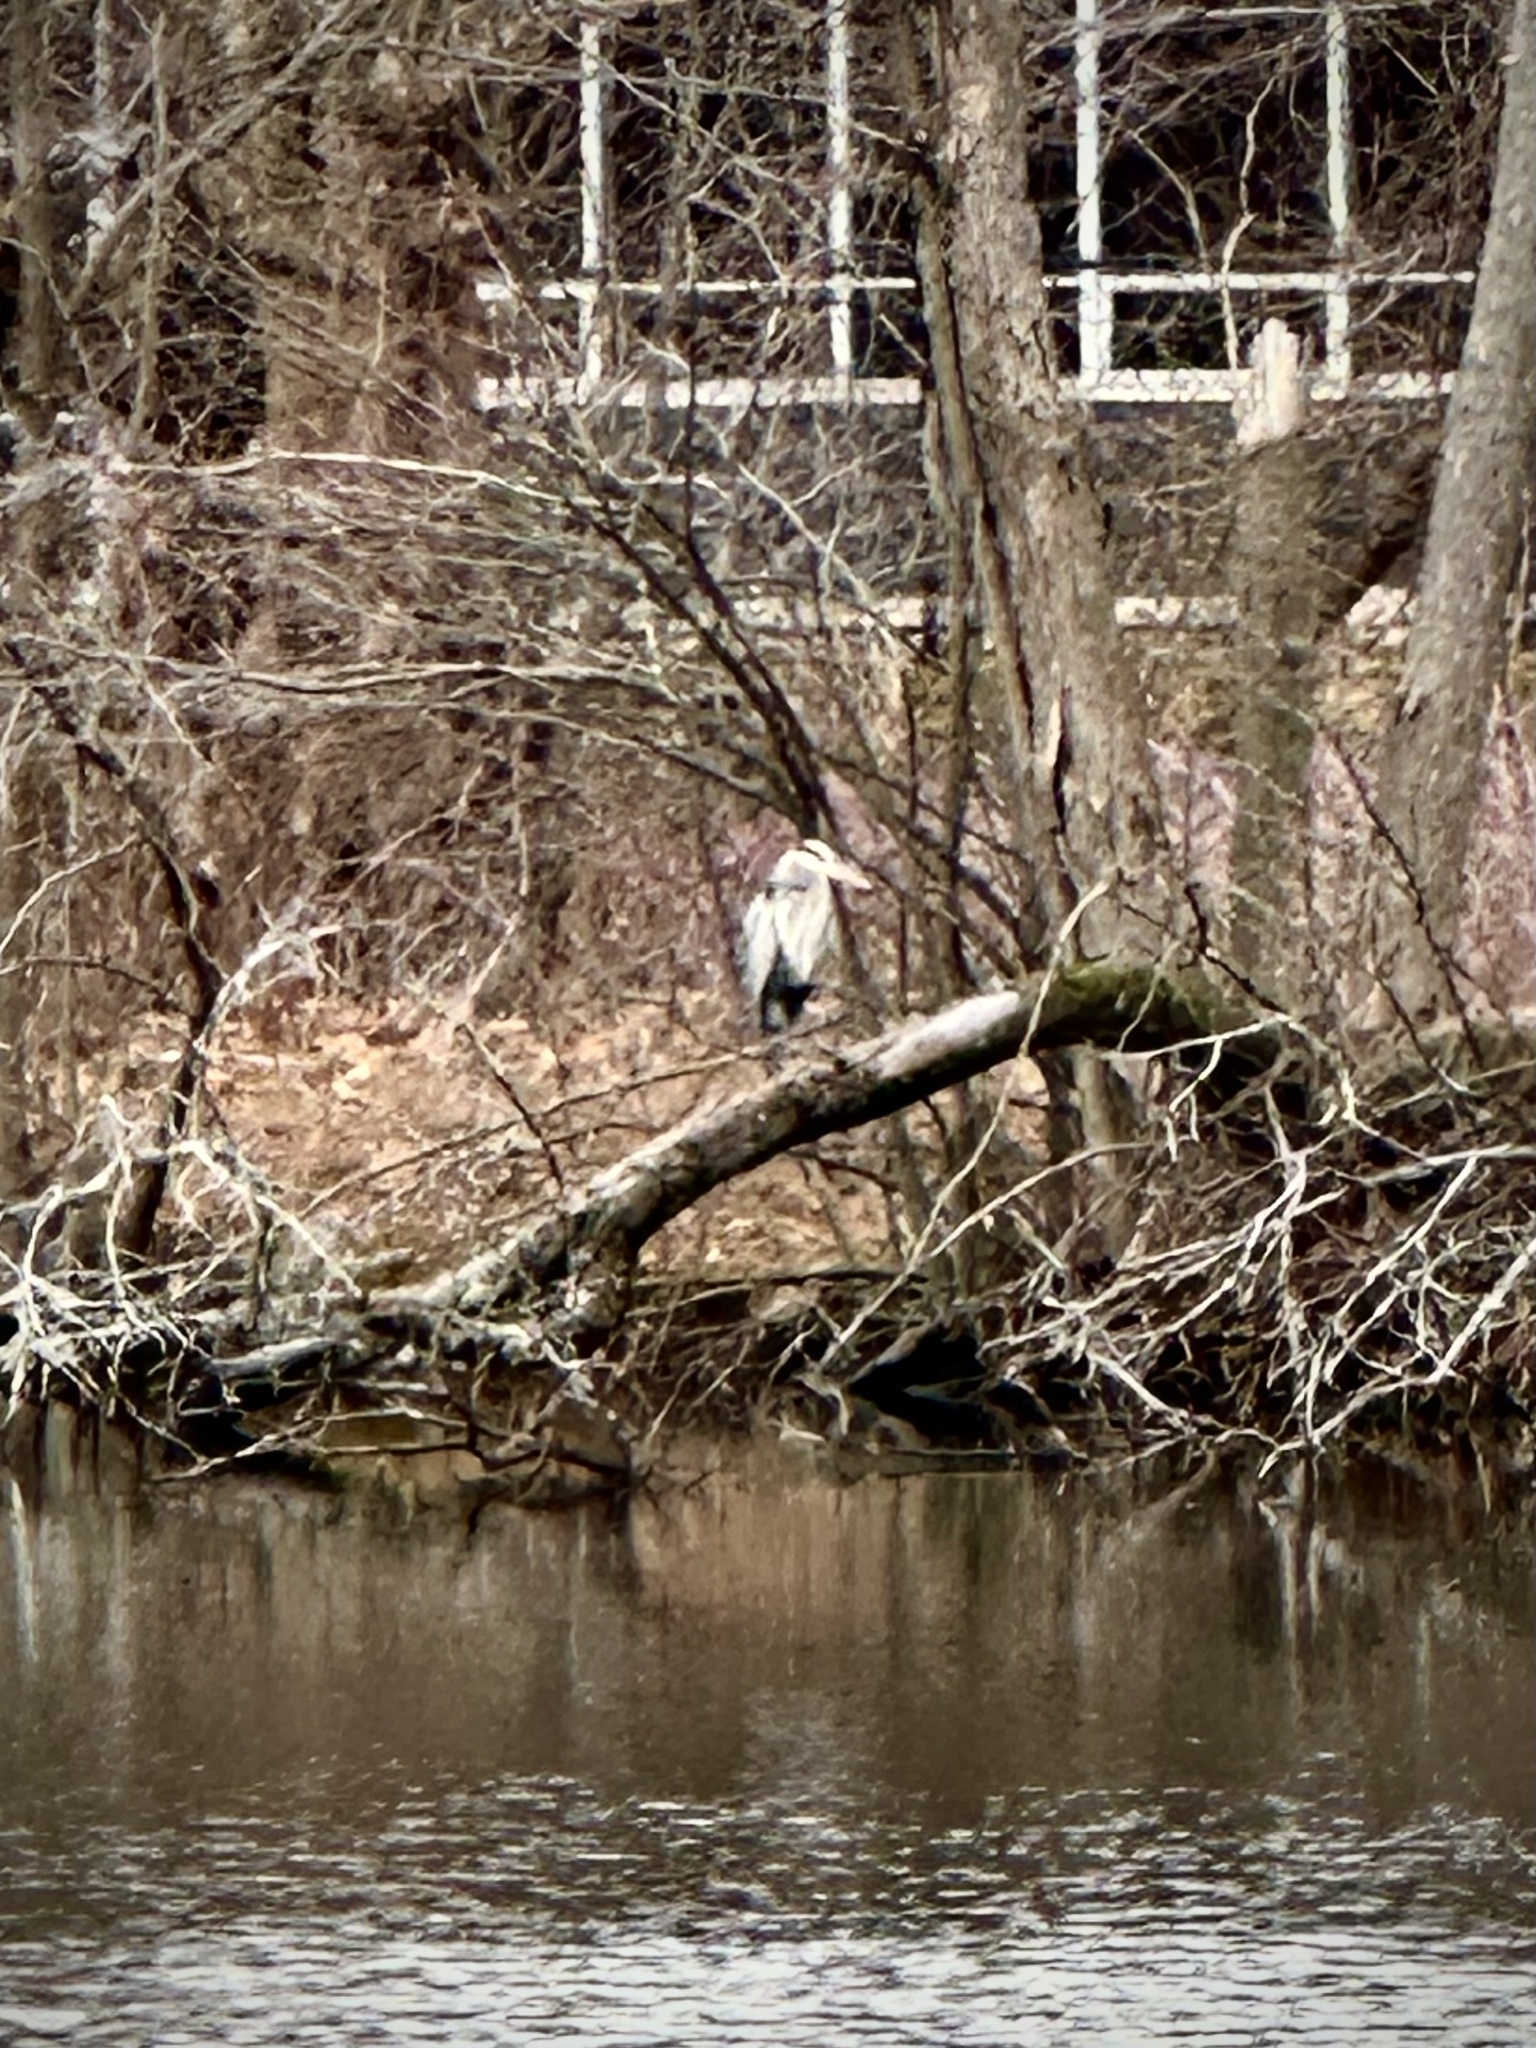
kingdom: Animalia
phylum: Chordata
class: Aves
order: Pelecaniformes
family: Ardeidae
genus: Ardea
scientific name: Ardea herodias
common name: Great blue heron
